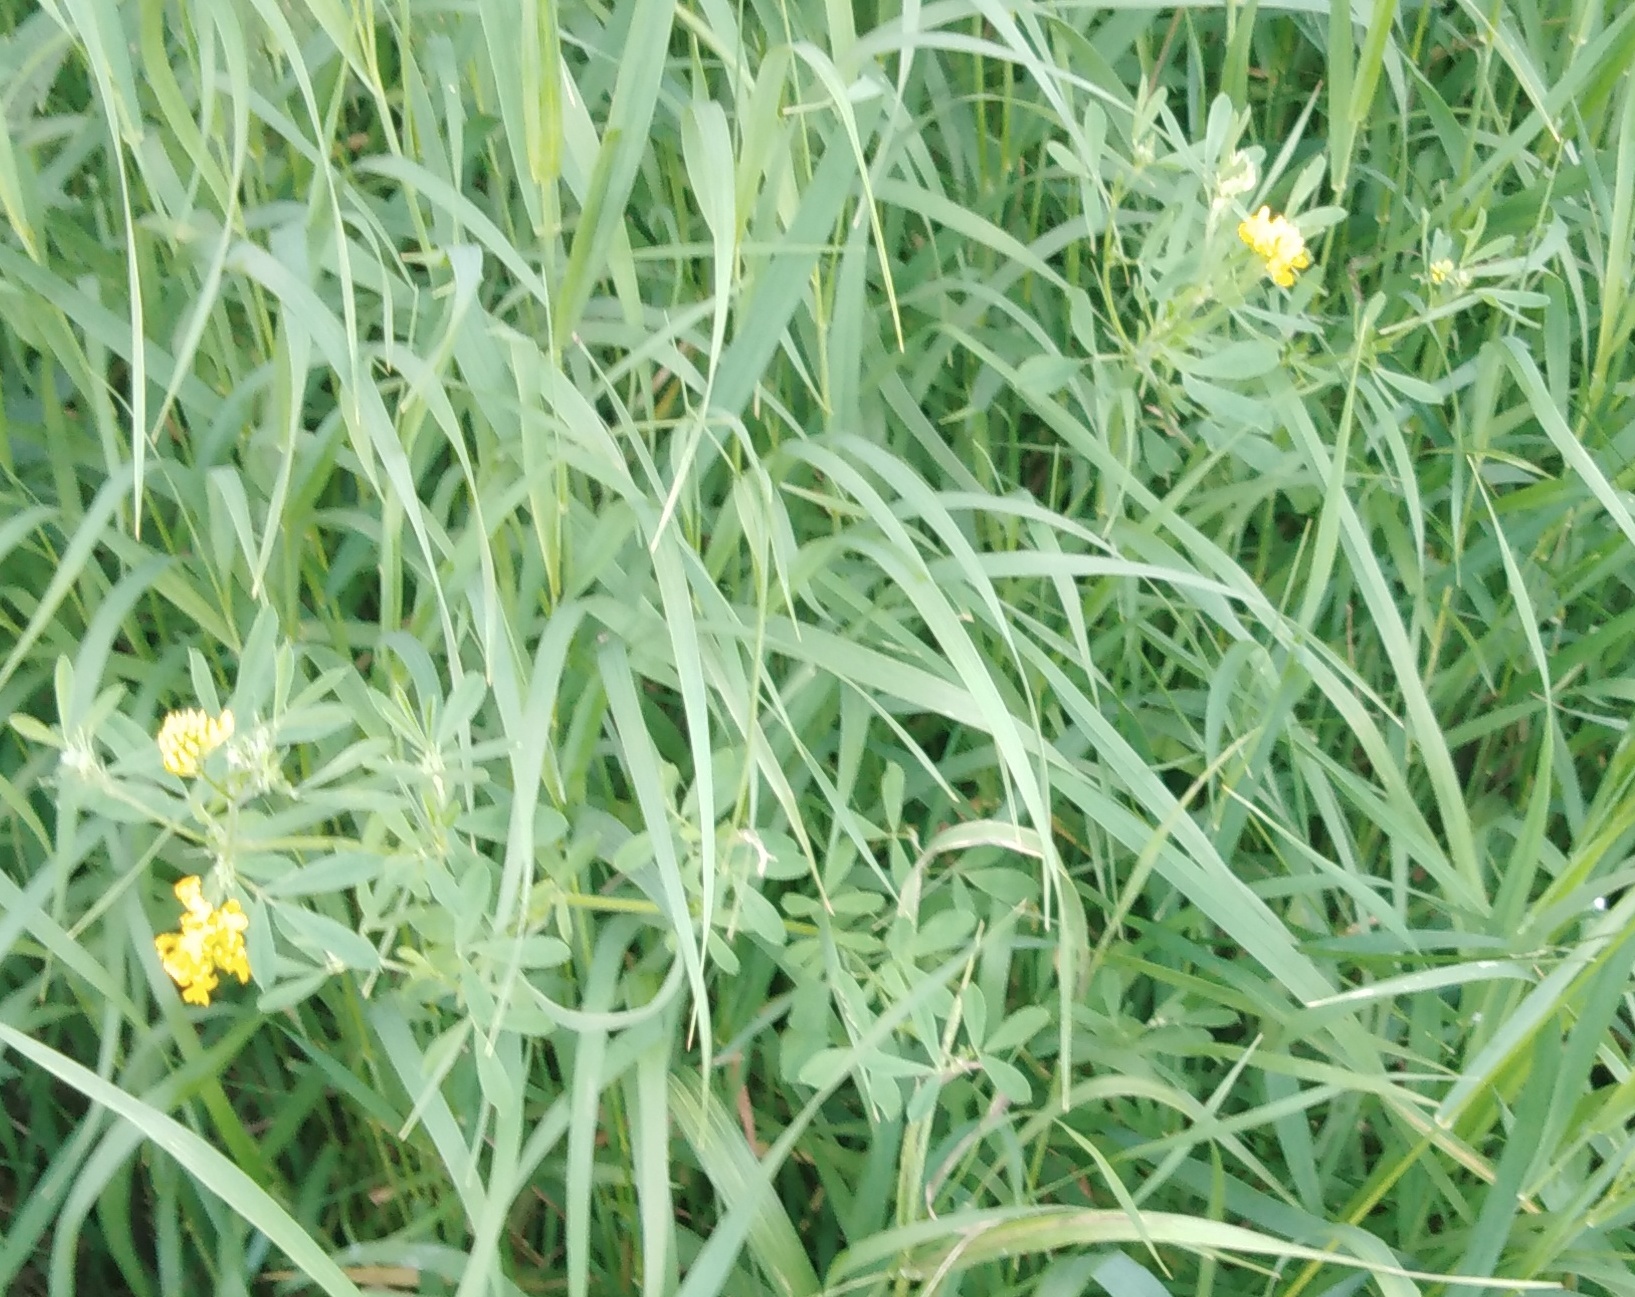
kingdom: Plantae
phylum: Tracheophyta
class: Magnoliopsida
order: Fabales
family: Fabaceae
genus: Medicago
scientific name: Medicago falcata
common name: Sickle medick
